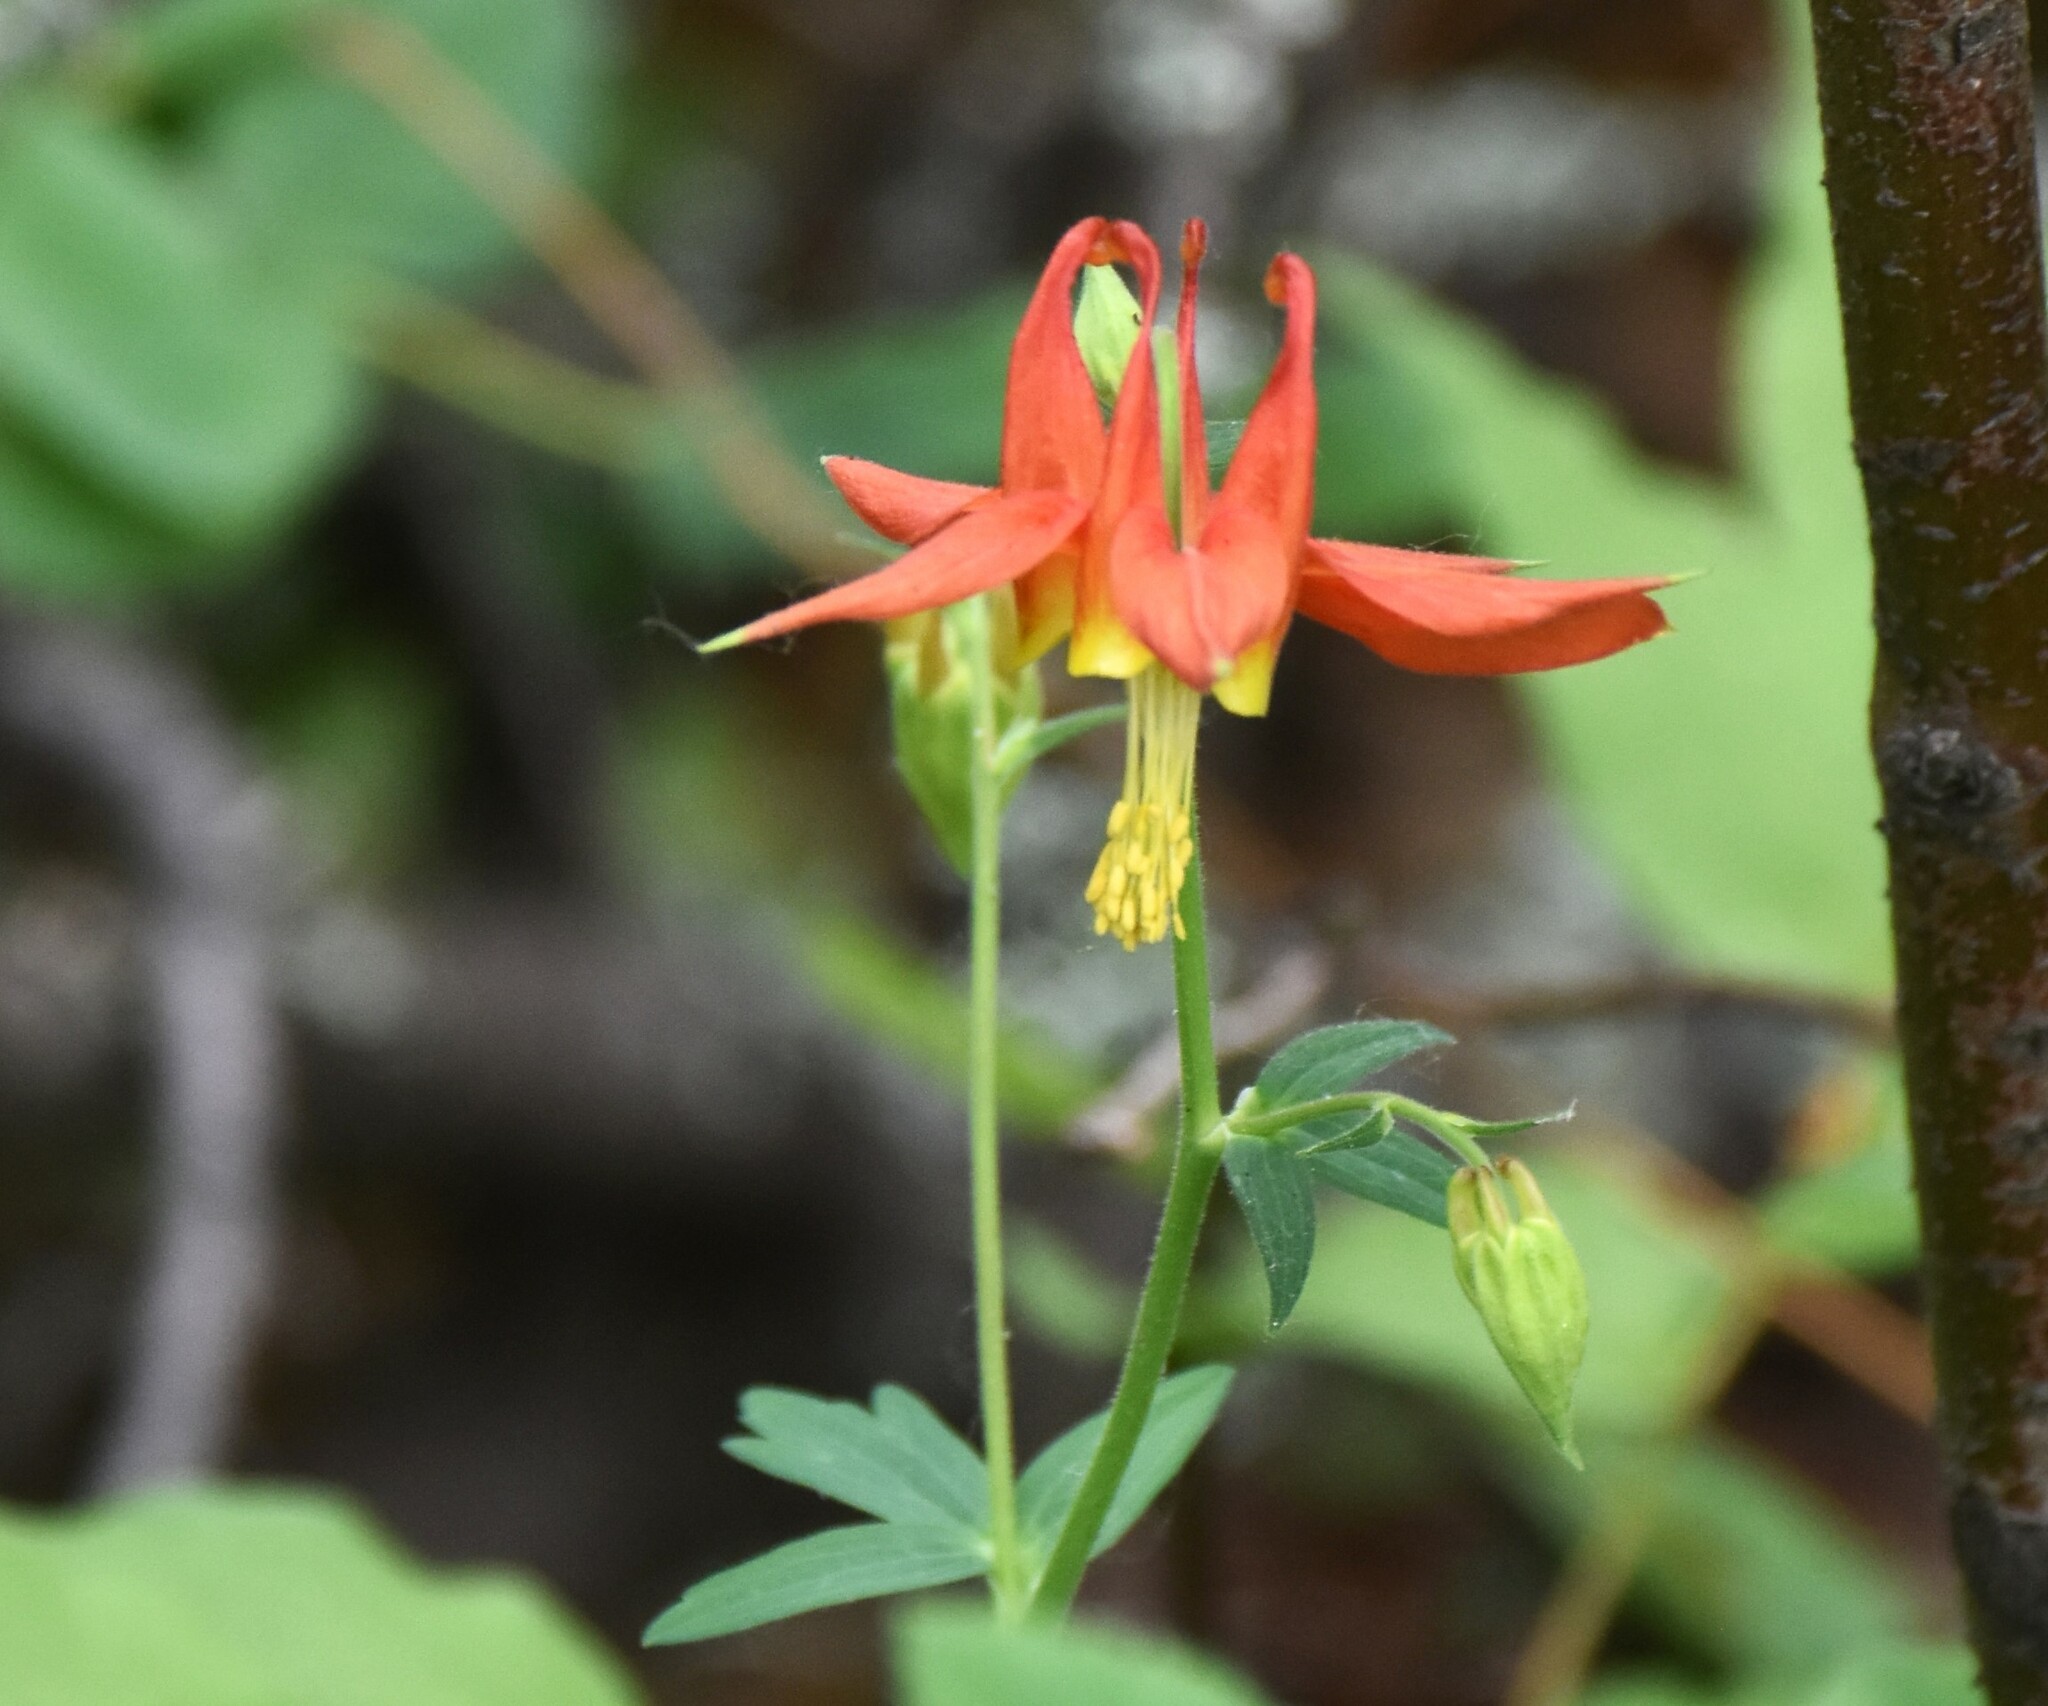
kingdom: Plantae
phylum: Tracheophyta
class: Magnoliopsida
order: Ranunculales
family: Ranunculaceae
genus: Aquilegia
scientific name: Aquilegia formosa
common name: Sitka columbine
